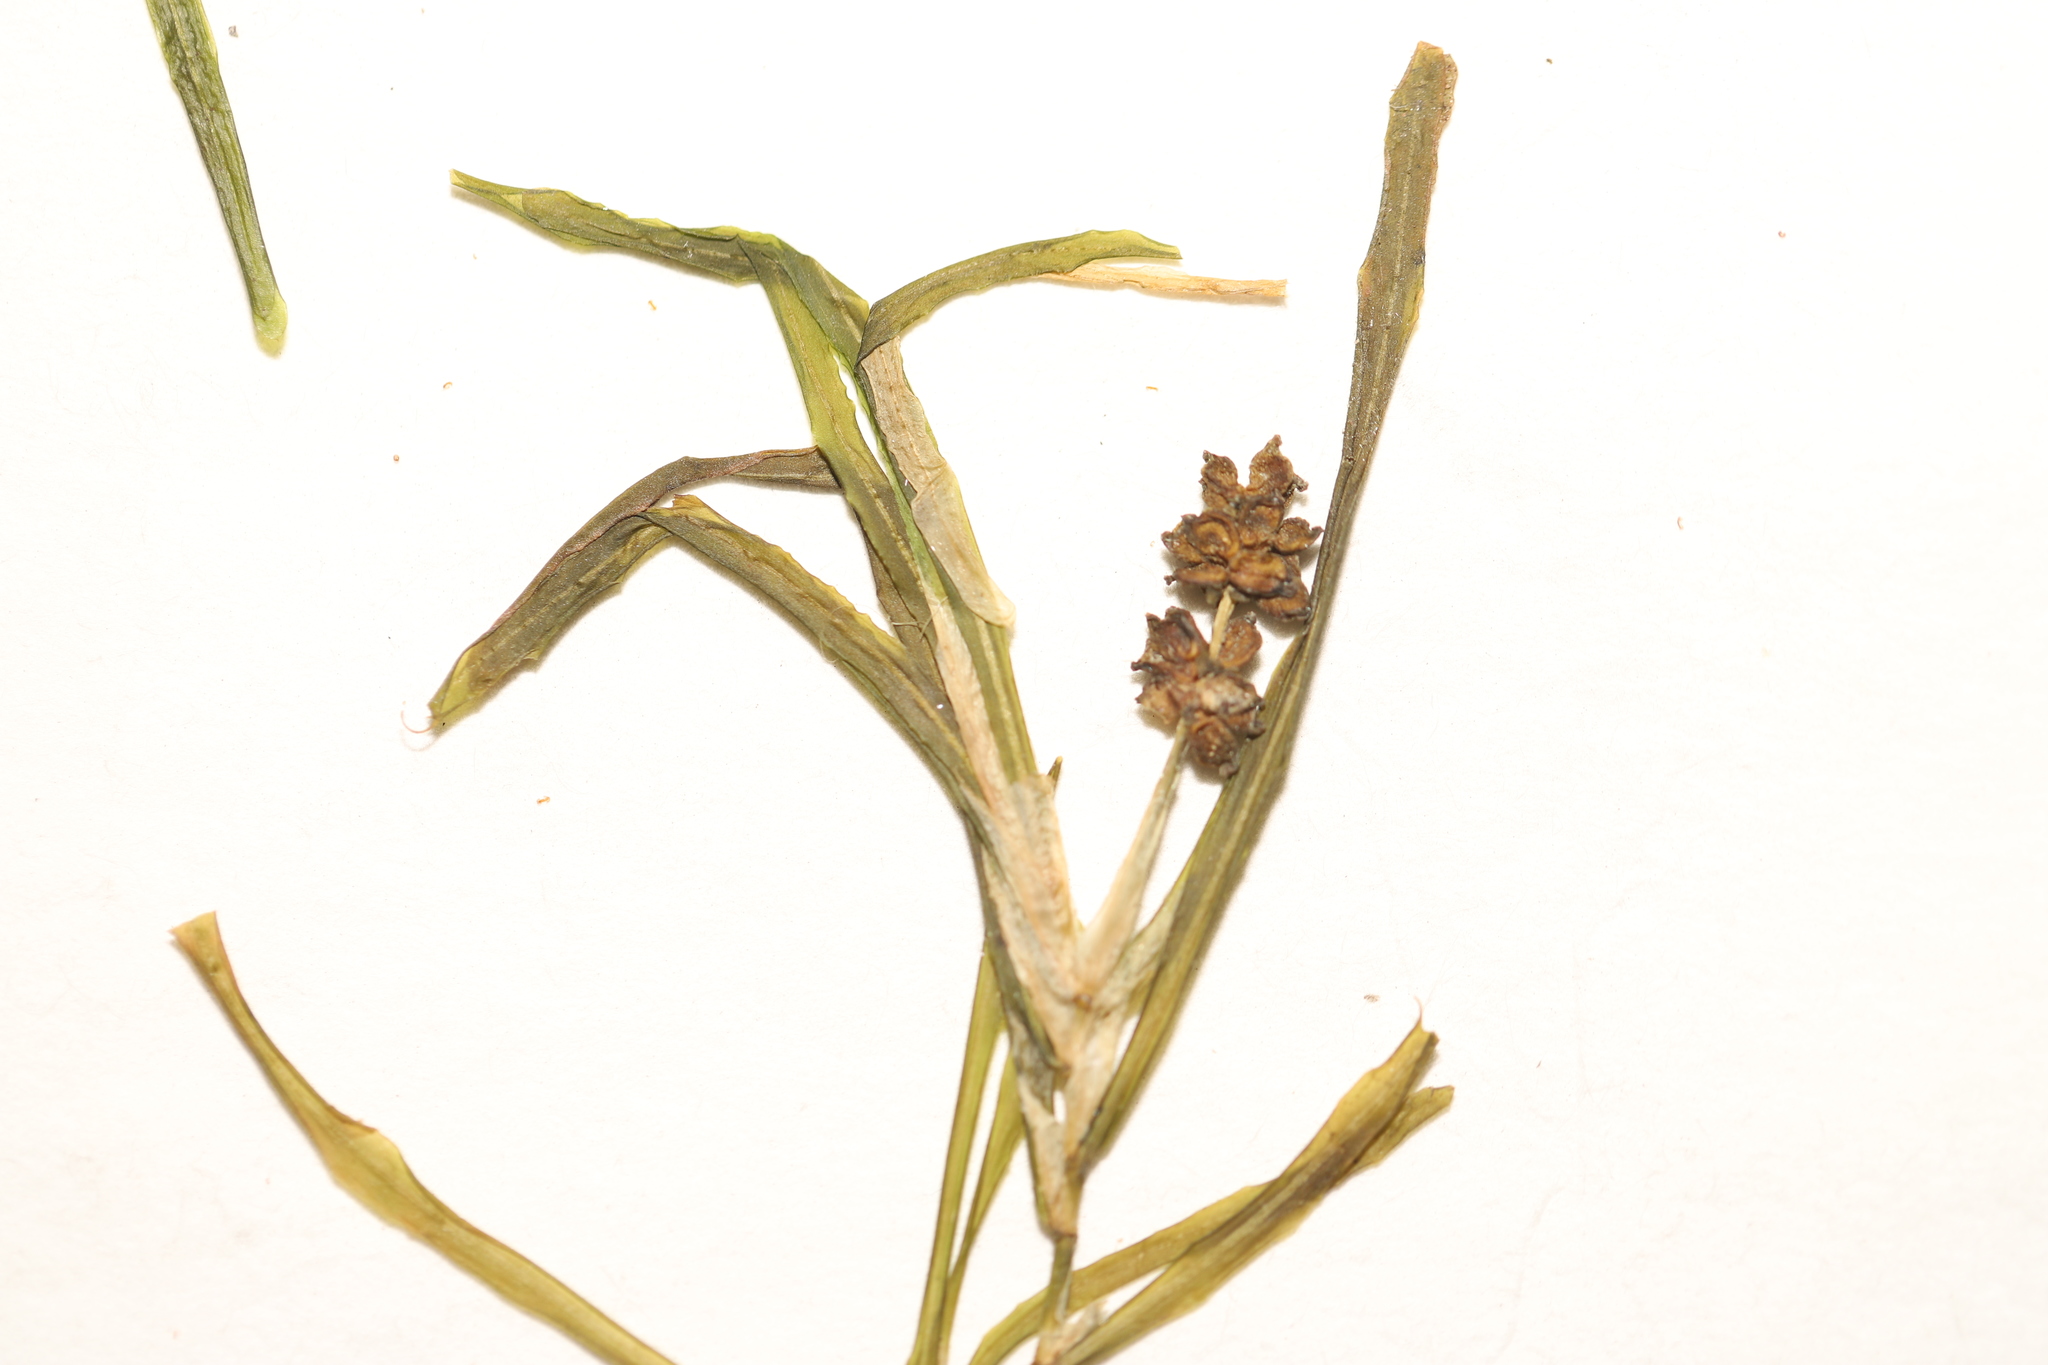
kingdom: Plantae
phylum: Tracheophyta
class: Liliopsida
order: Alismatales
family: Potamogetonaceae
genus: Potamogeton
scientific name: Potamogeton obtusifolius
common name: Blunt-leaved pondweed
